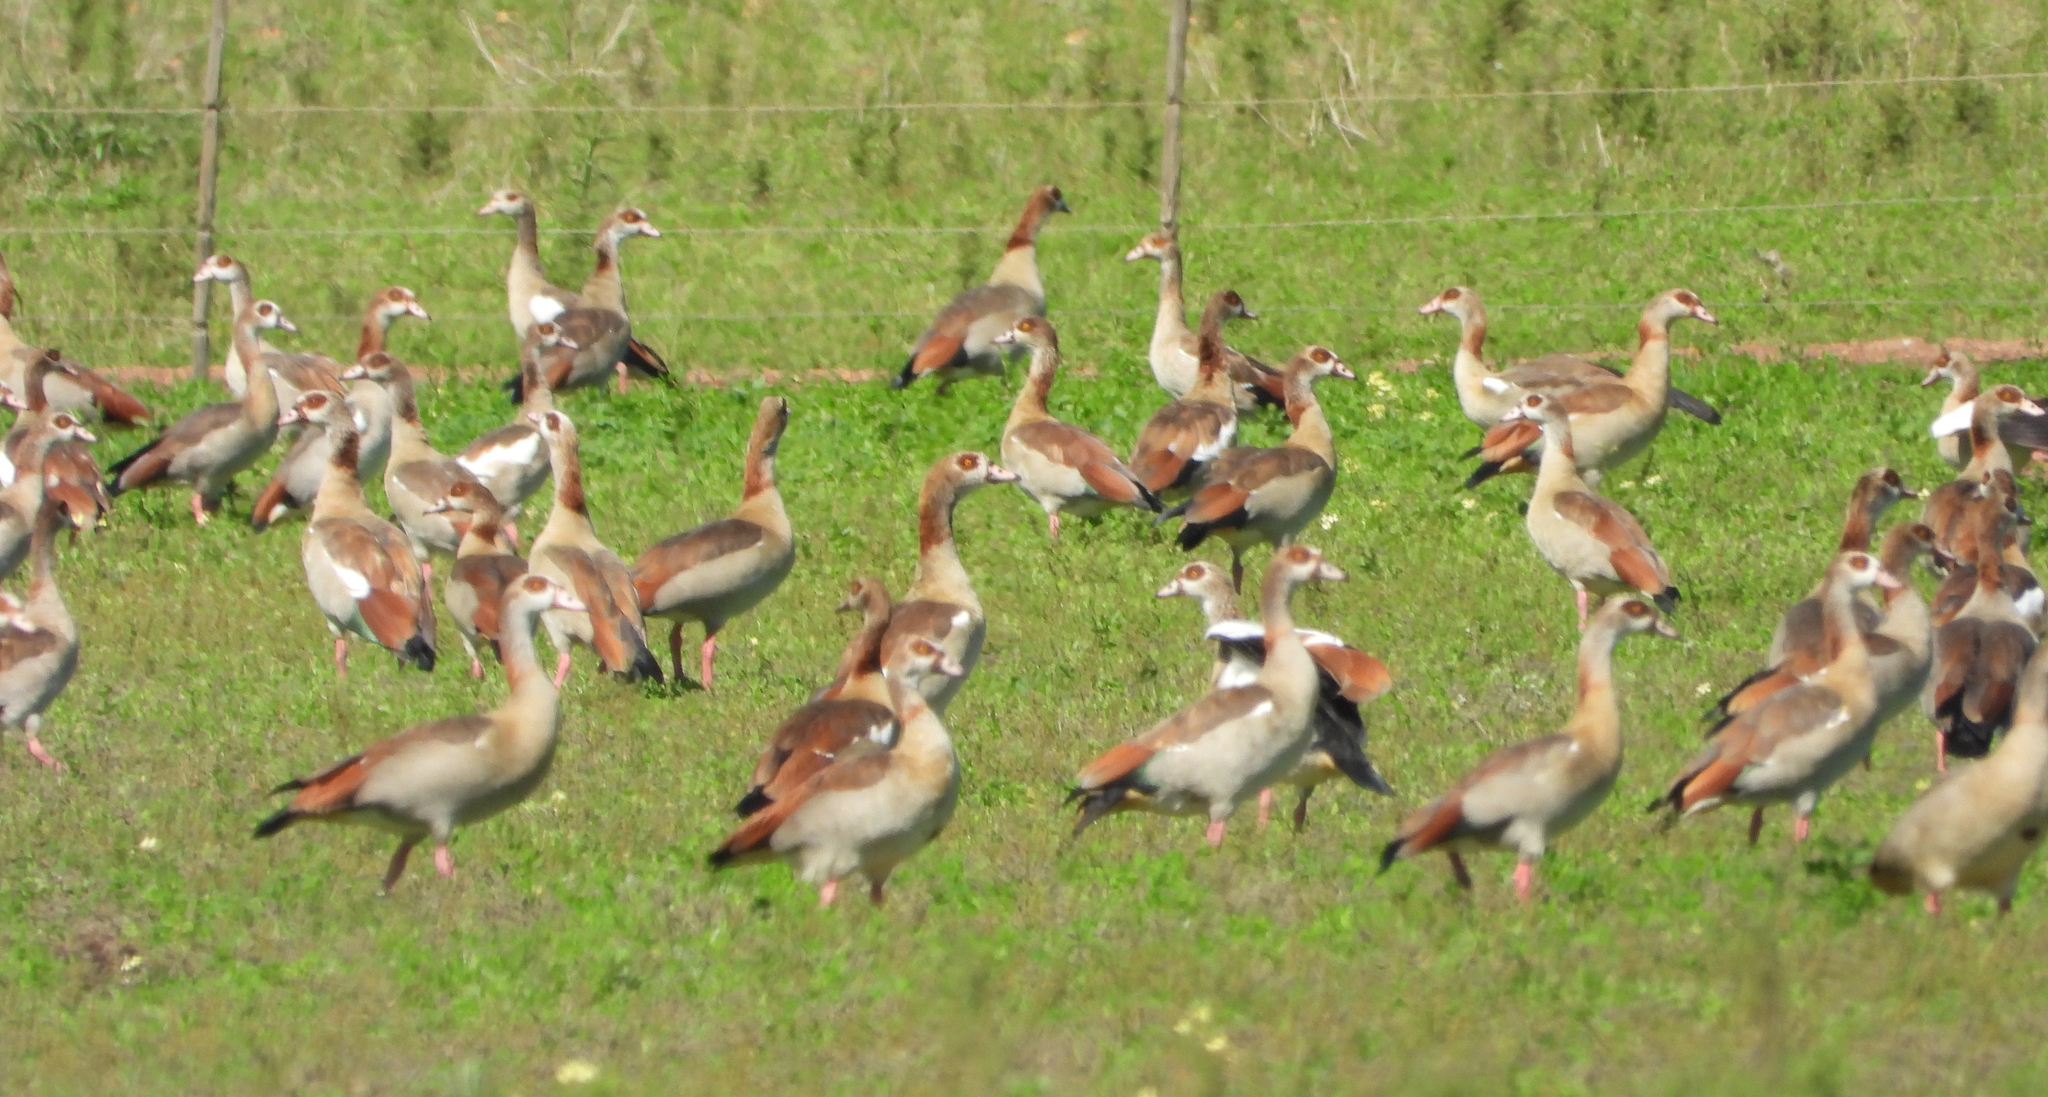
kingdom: Animalia
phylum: Chordata
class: Aves
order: Anseriformes
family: Anatidae
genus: Alopochen
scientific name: Alopochen aegyptiaca
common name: Egyptian goose
